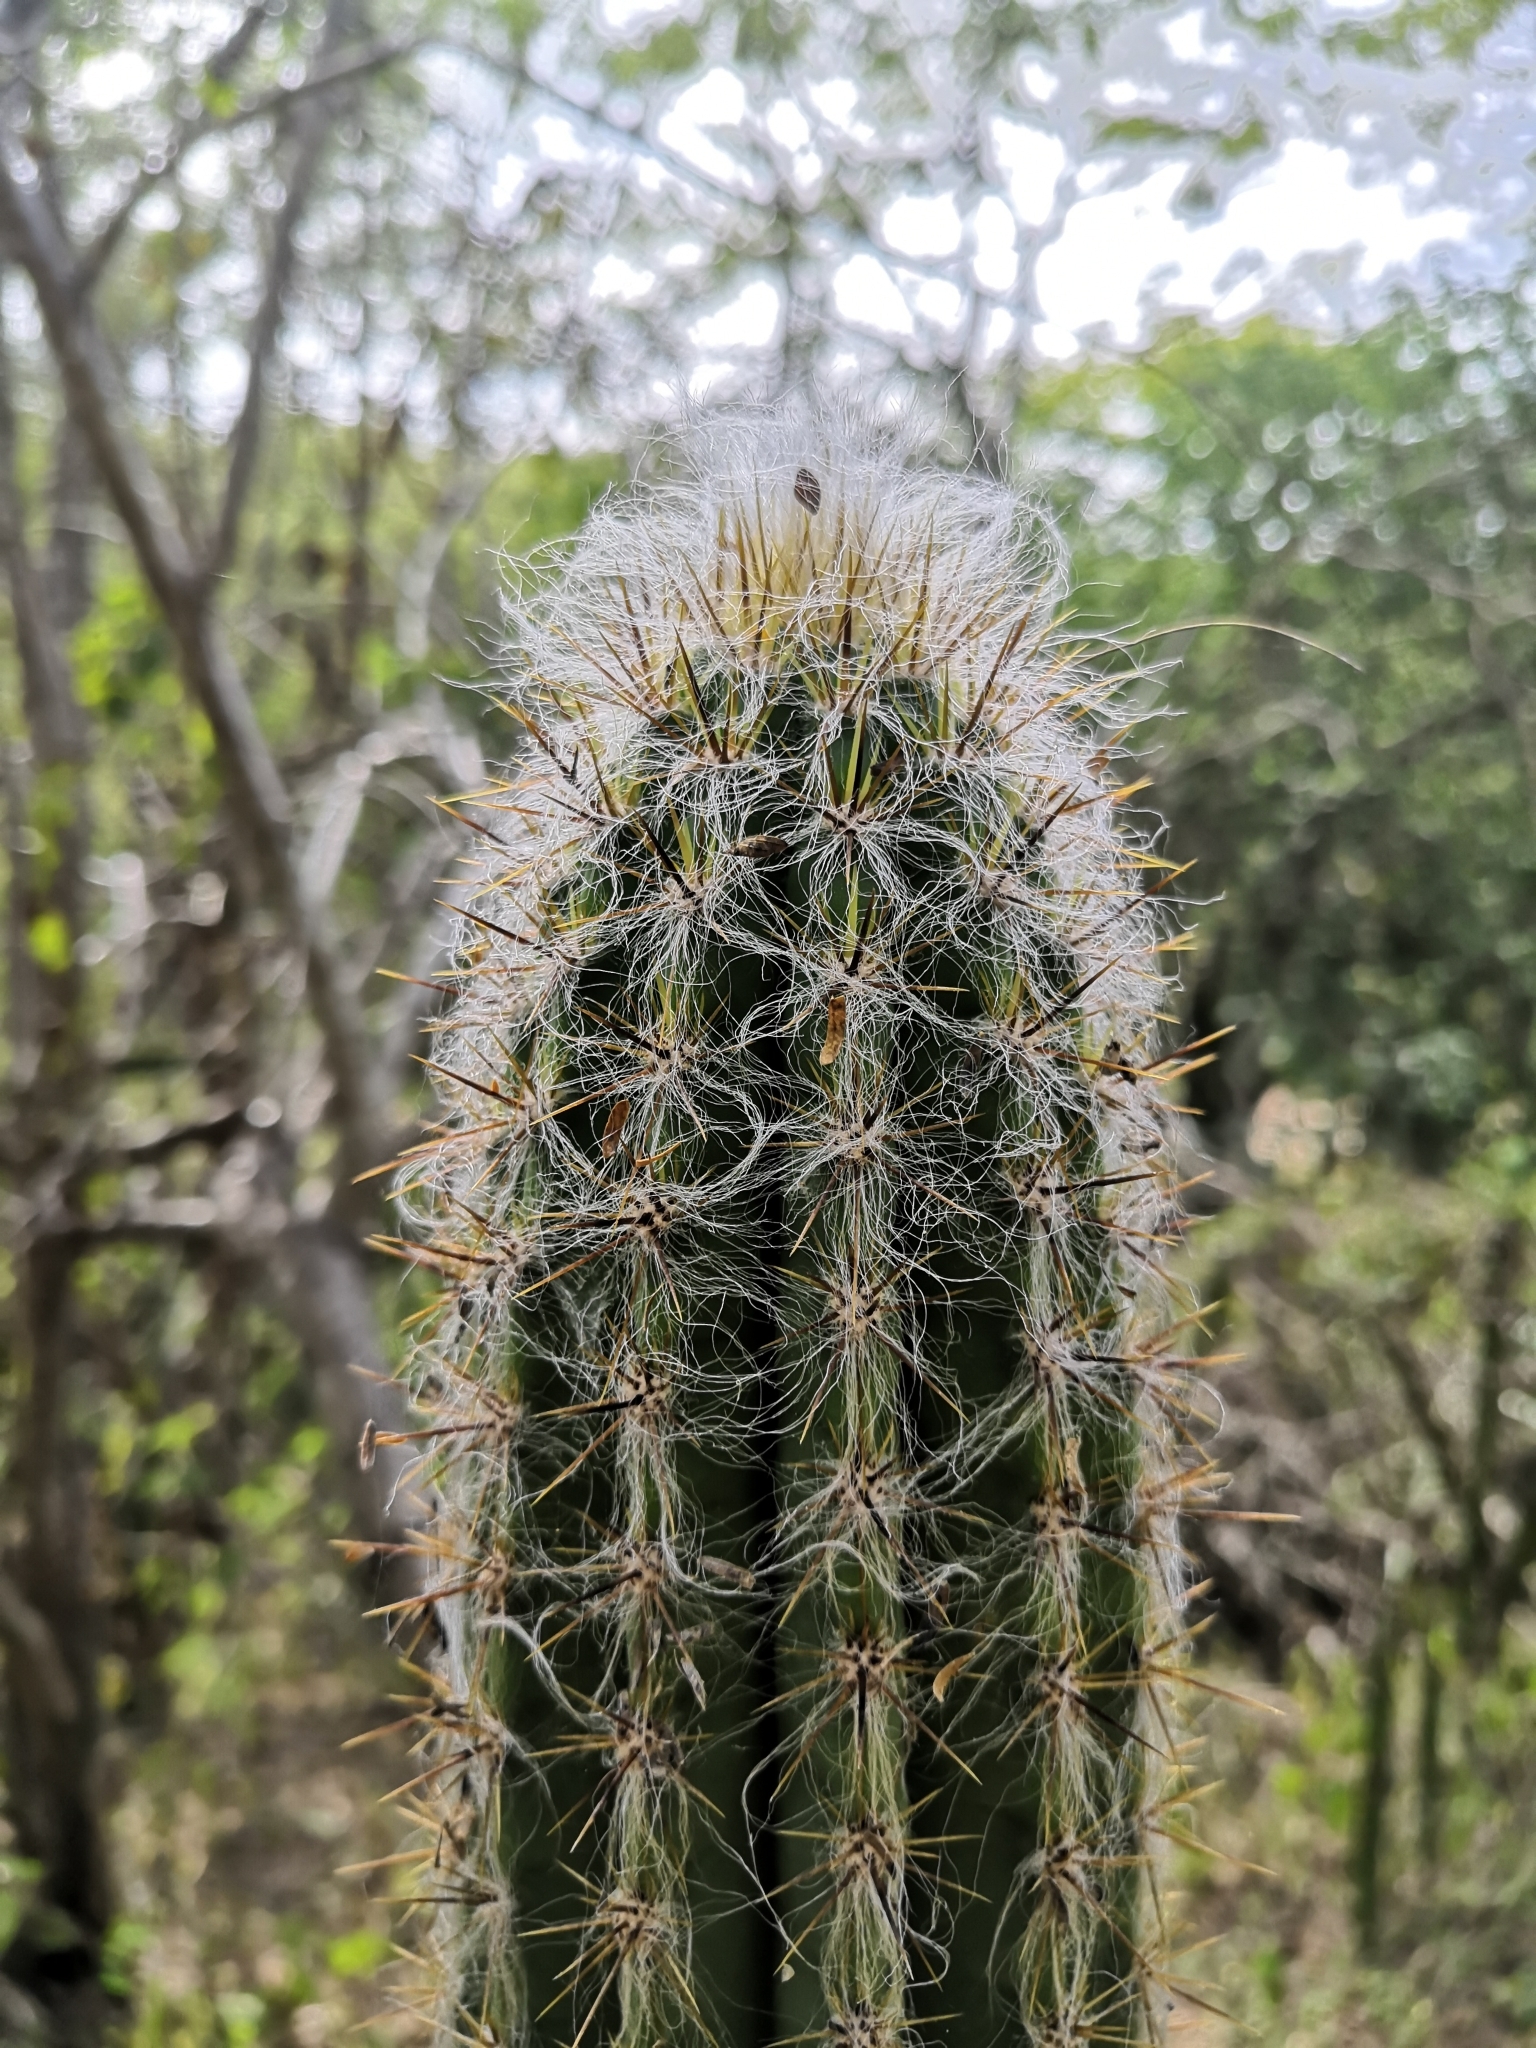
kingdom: Plantae
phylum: Tracheophyta
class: Magnoliopsida
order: Caryophyllales
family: Cactaceae
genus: Pilosocereus
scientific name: Pilosocereus purpusii
